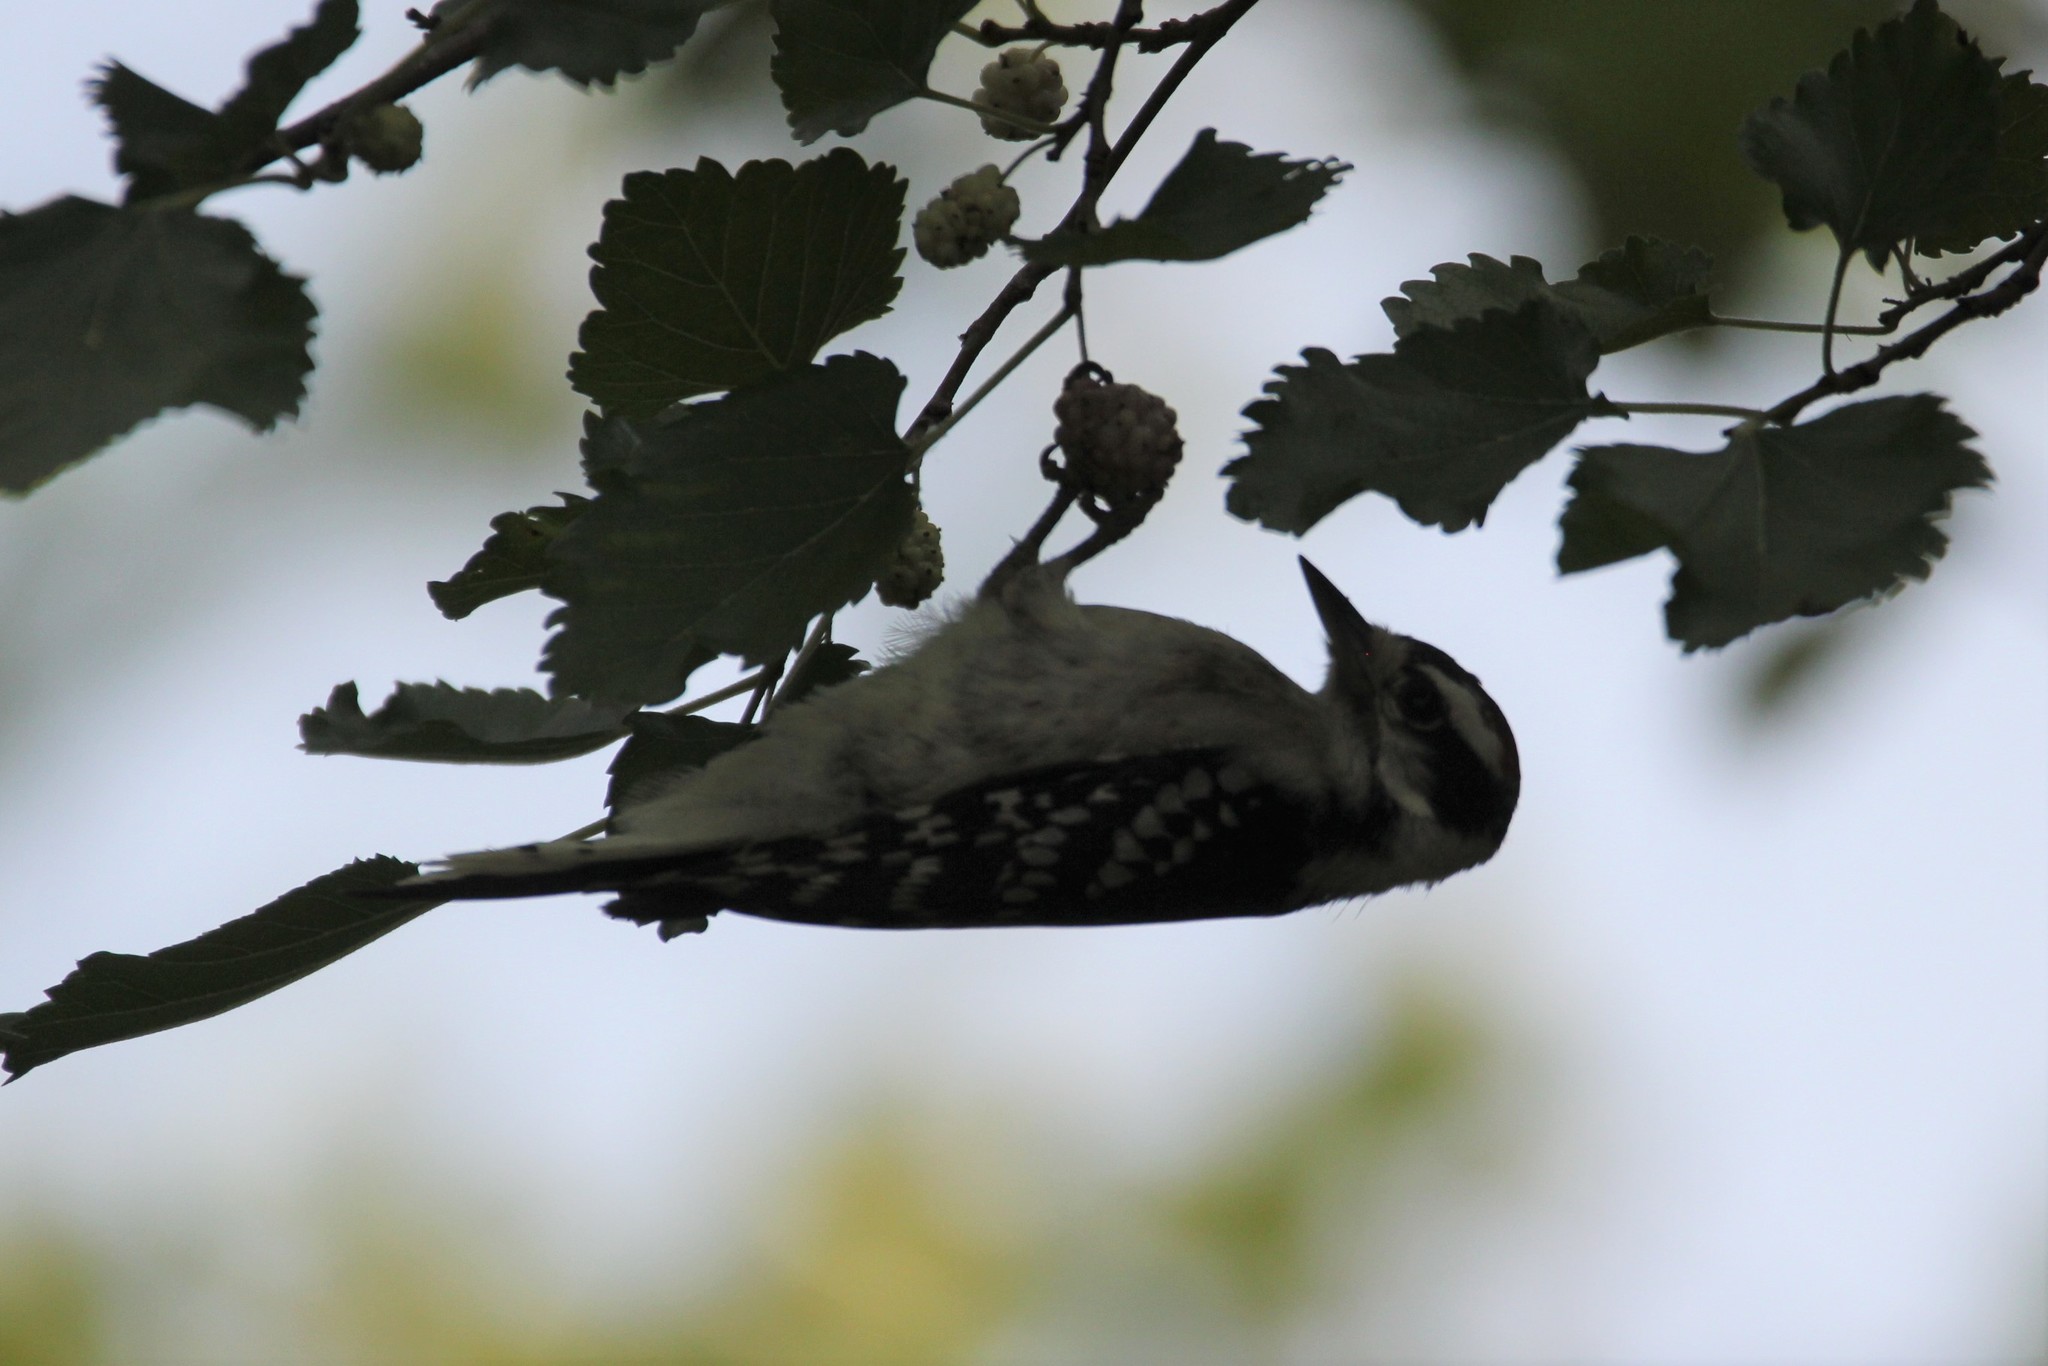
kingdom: Animalia
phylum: Chordata
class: Aves
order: Piciformes
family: Picidae
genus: Dryobates
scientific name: Dryobates pubescens
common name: Downy woodpecker
